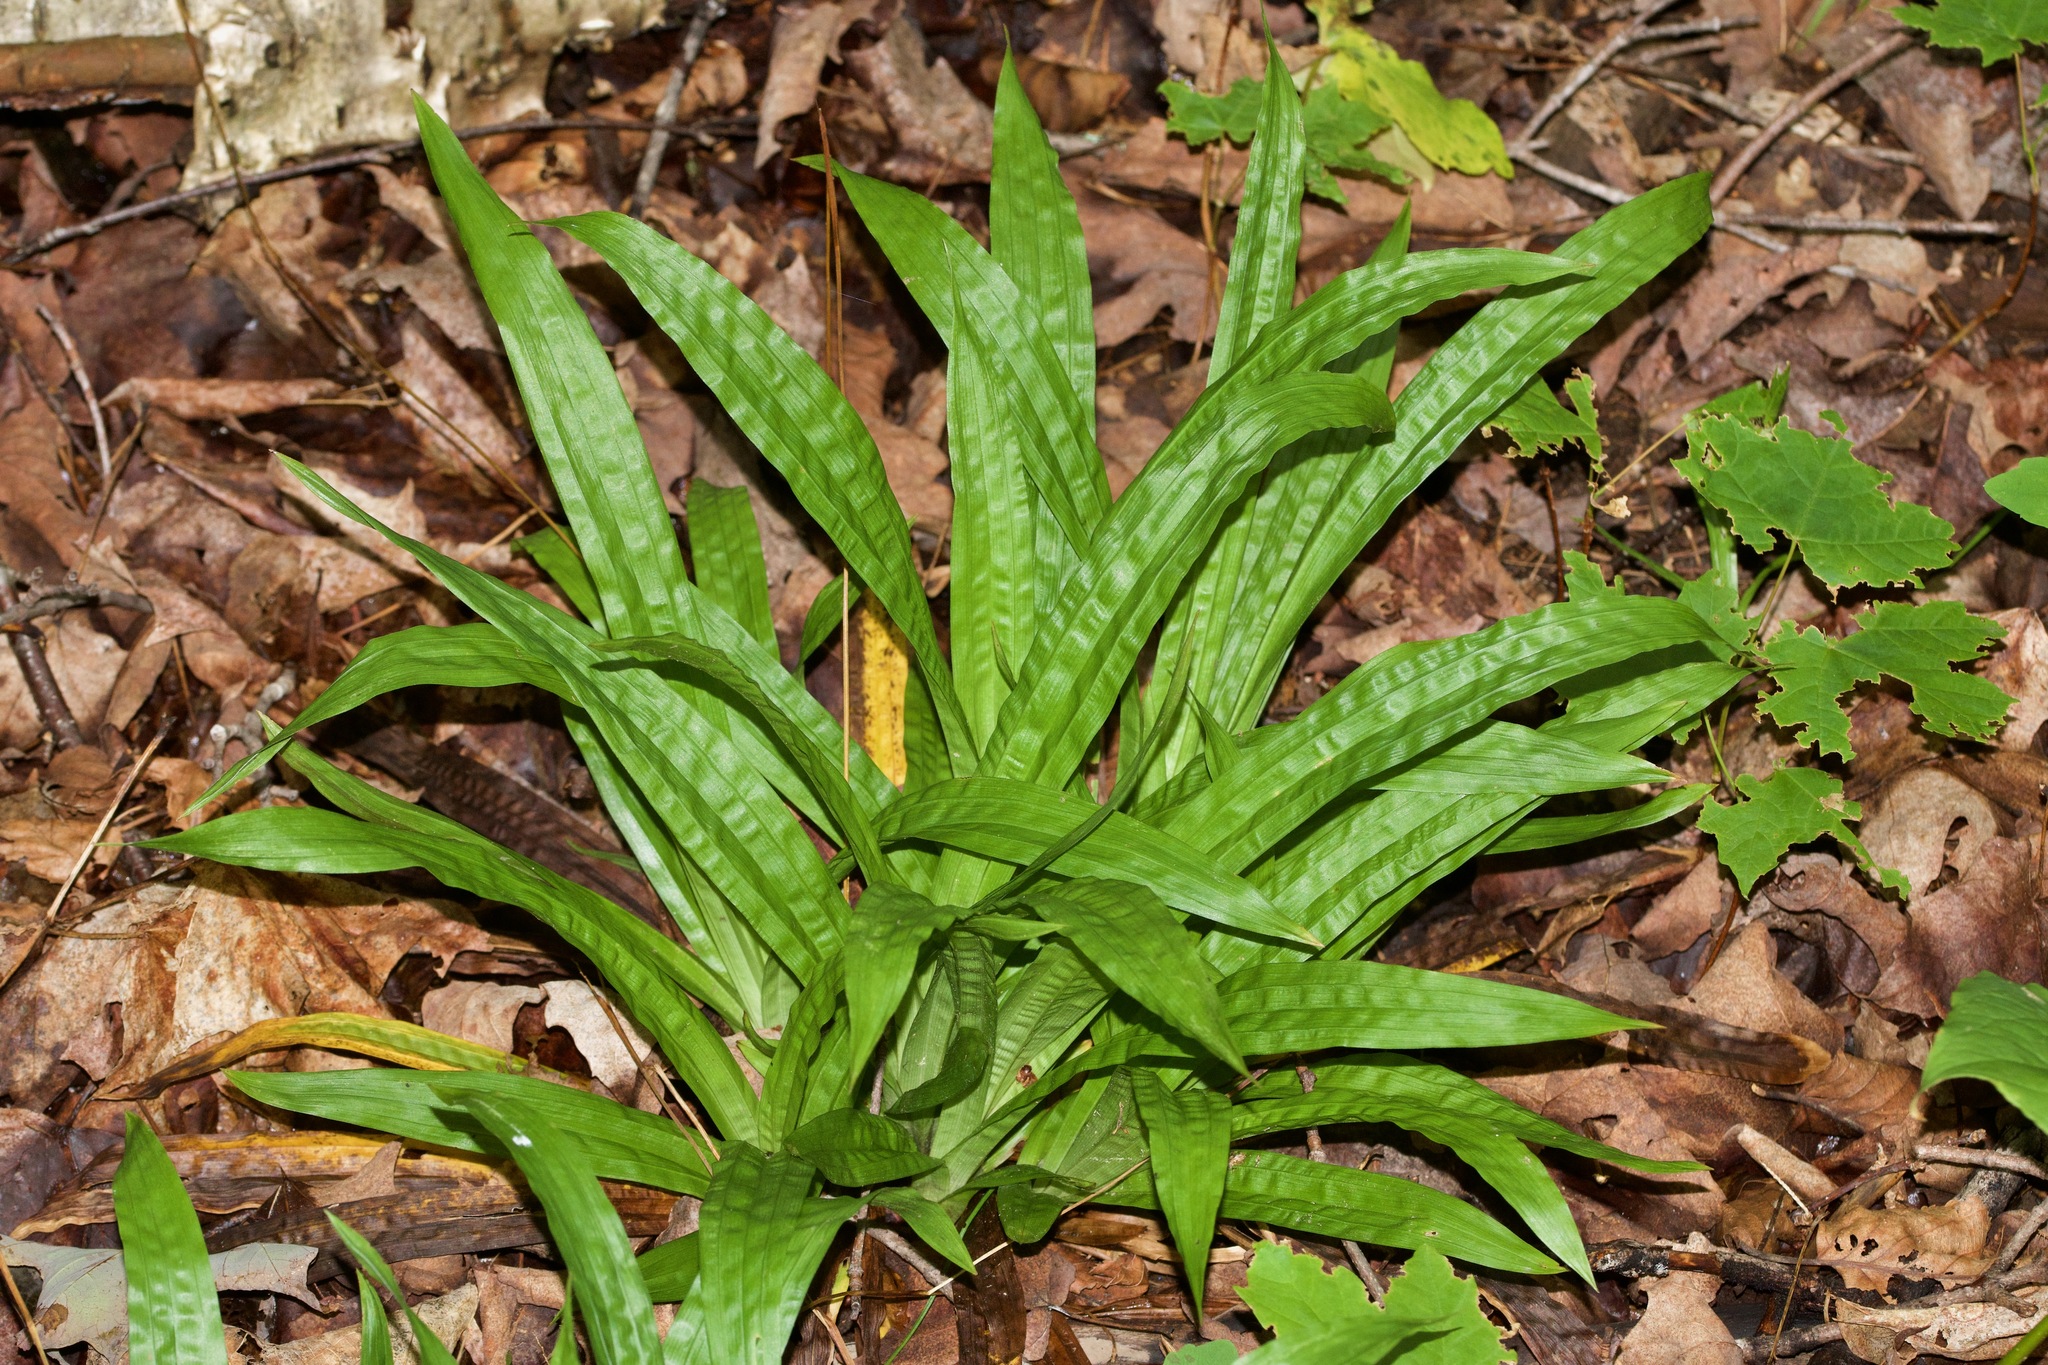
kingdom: Plantae
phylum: Tracheophyta
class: Liliopsida
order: Poales
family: Cyperaceae
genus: Carex
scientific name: Carex plantaginea
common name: Plantain-leaved sedge
